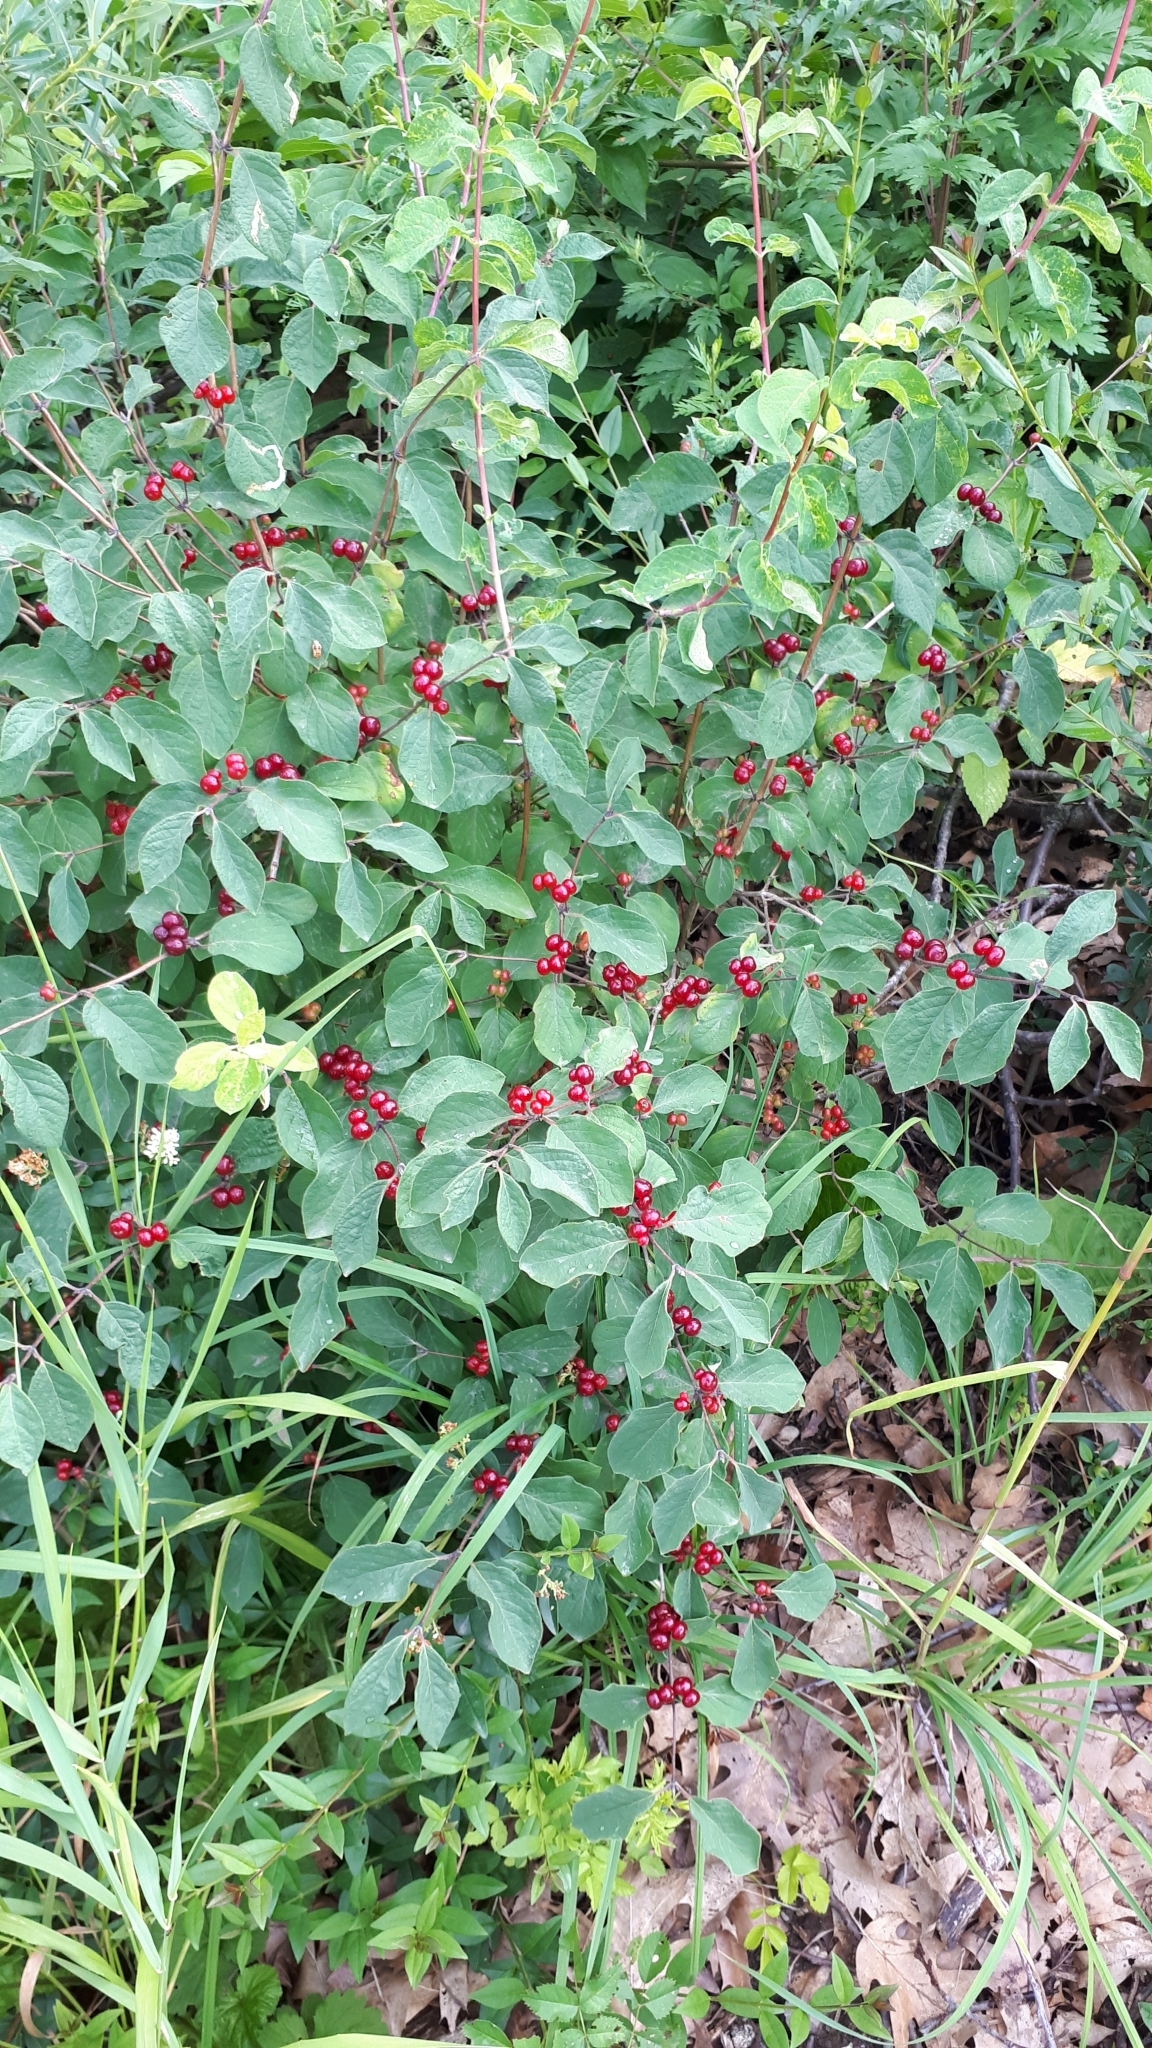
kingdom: Plantae
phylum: Tracheophyta
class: Magnoliopsida
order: Dipsacales
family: Caprifoliaceae
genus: Lonicera
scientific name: Lonicera xylosteum
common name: Fly honeysuckle
